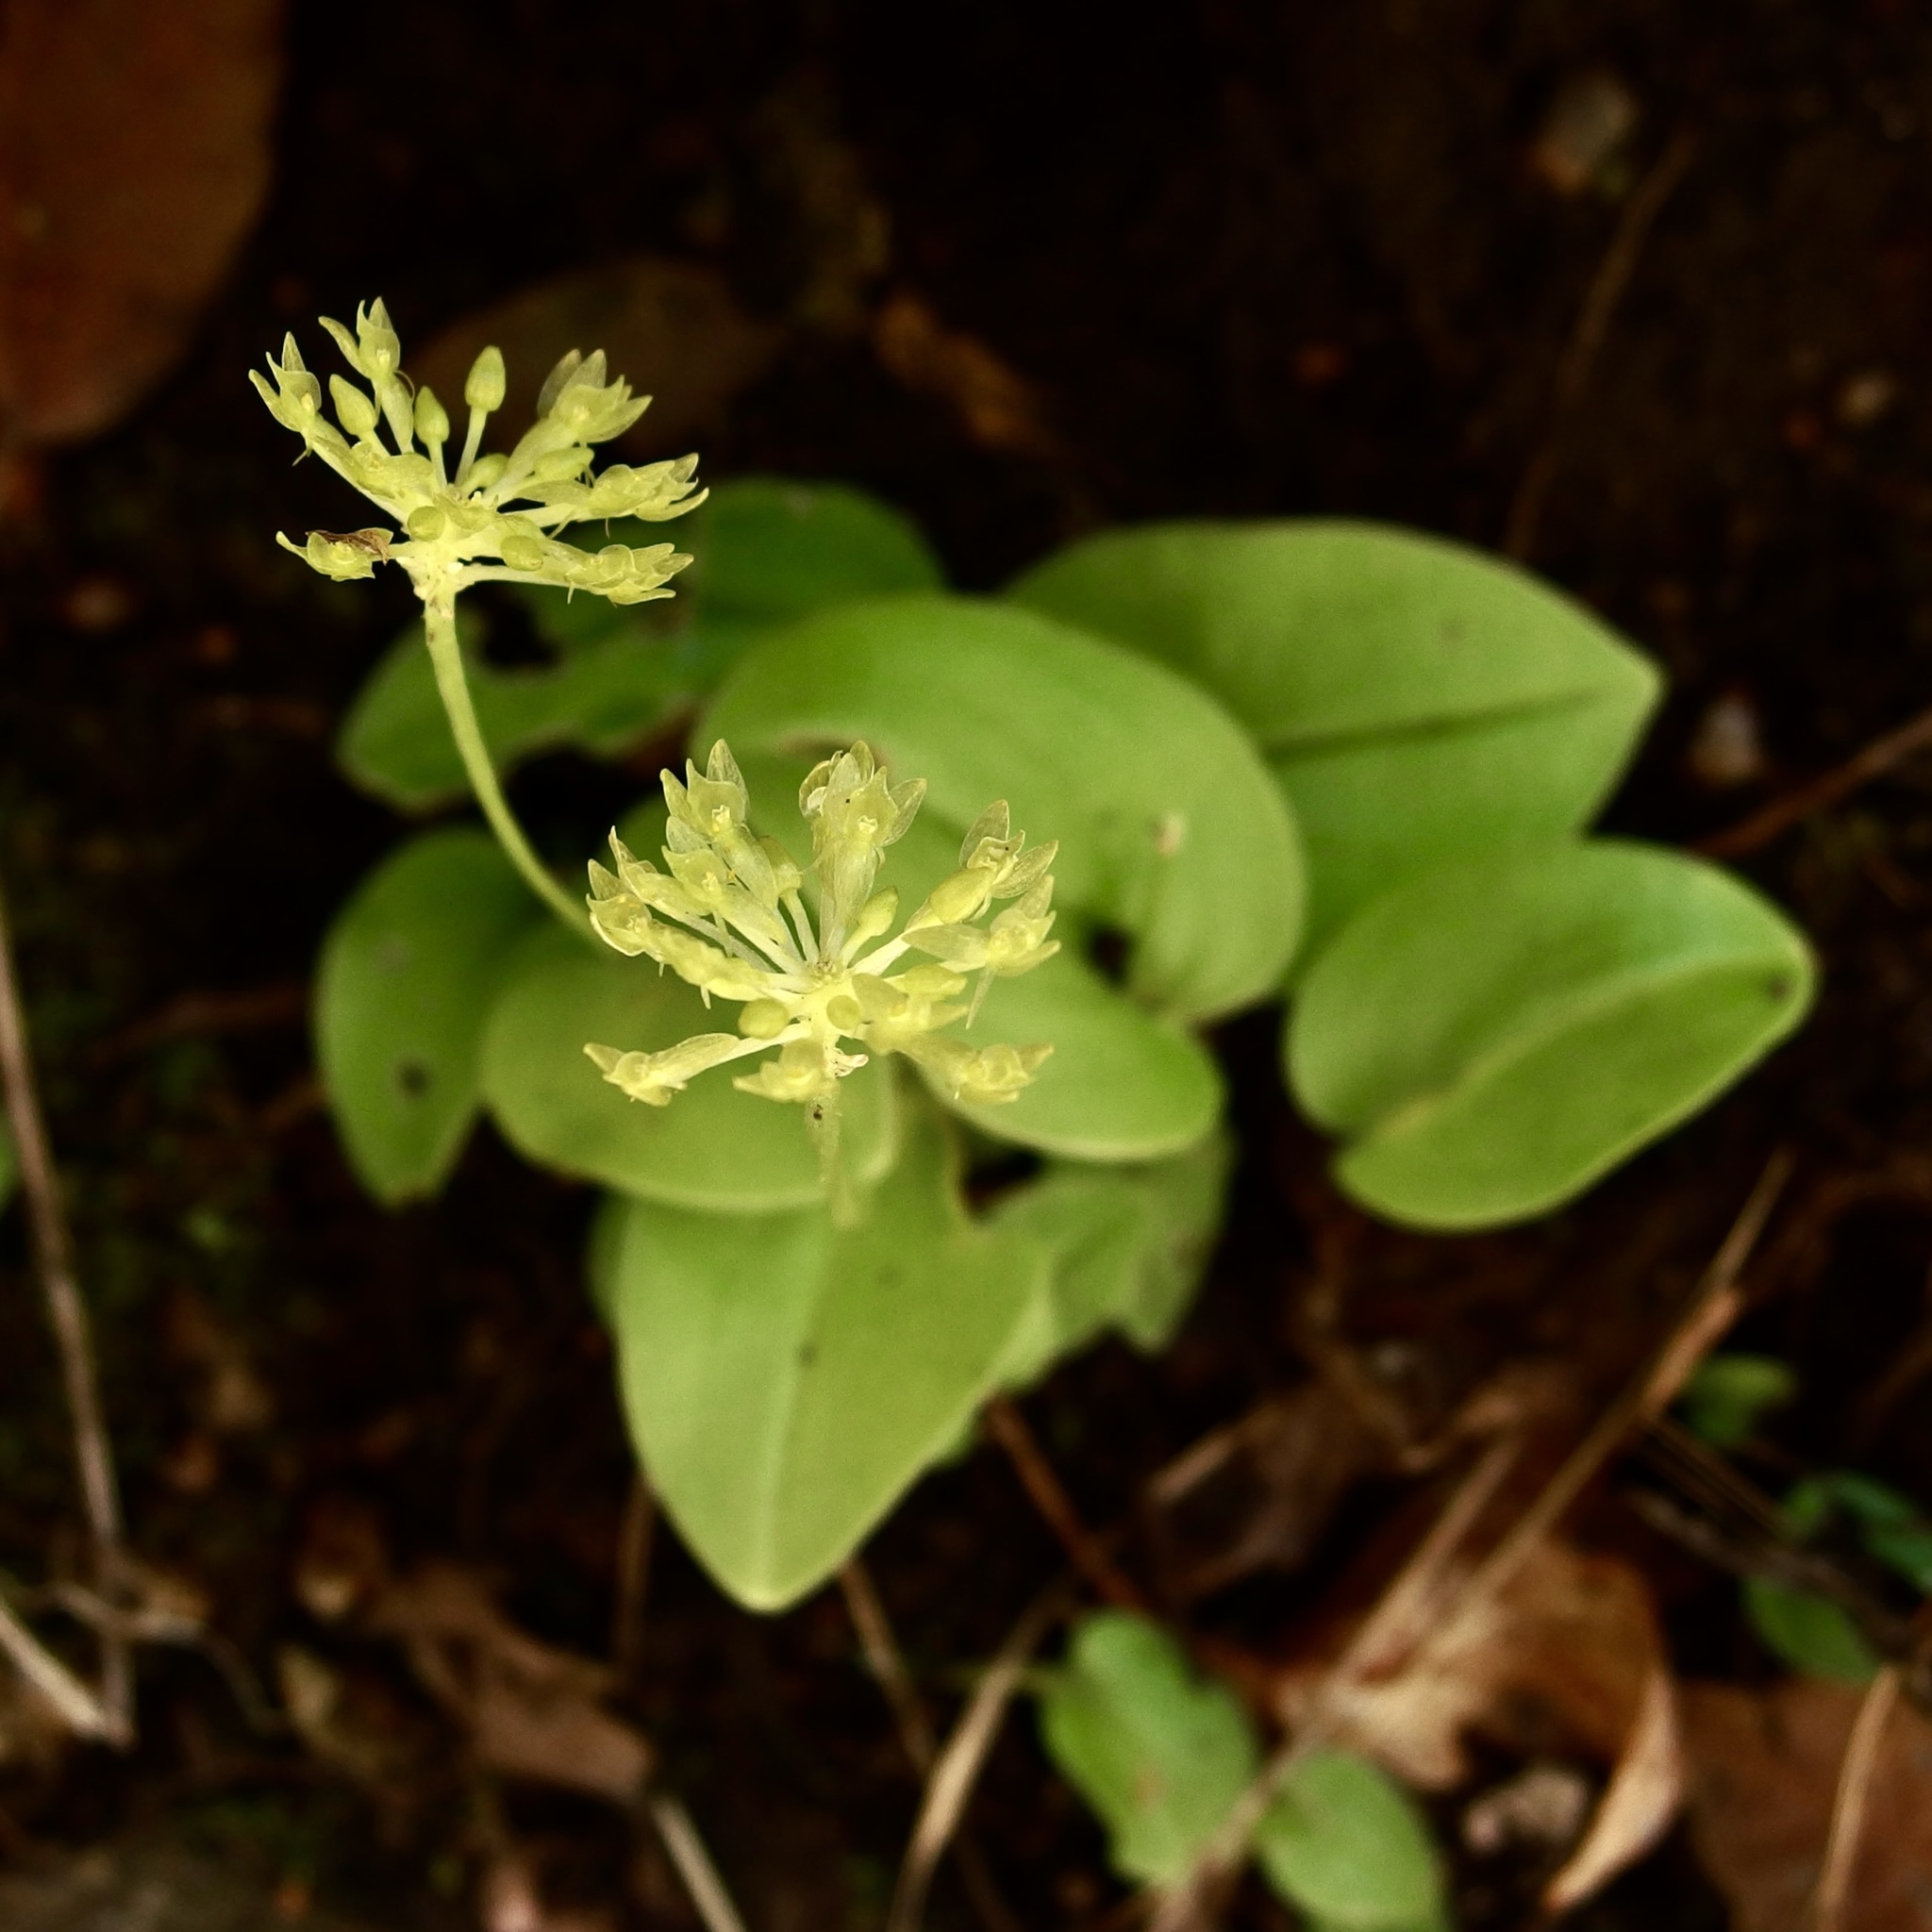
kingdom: Plantae
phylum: Tracheophyta
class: Liliopsida
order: Asparagales
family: Orchidaceae
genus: Malaxis
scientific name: Malaxis brachystachys
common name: Huachuca adder's-mouth
